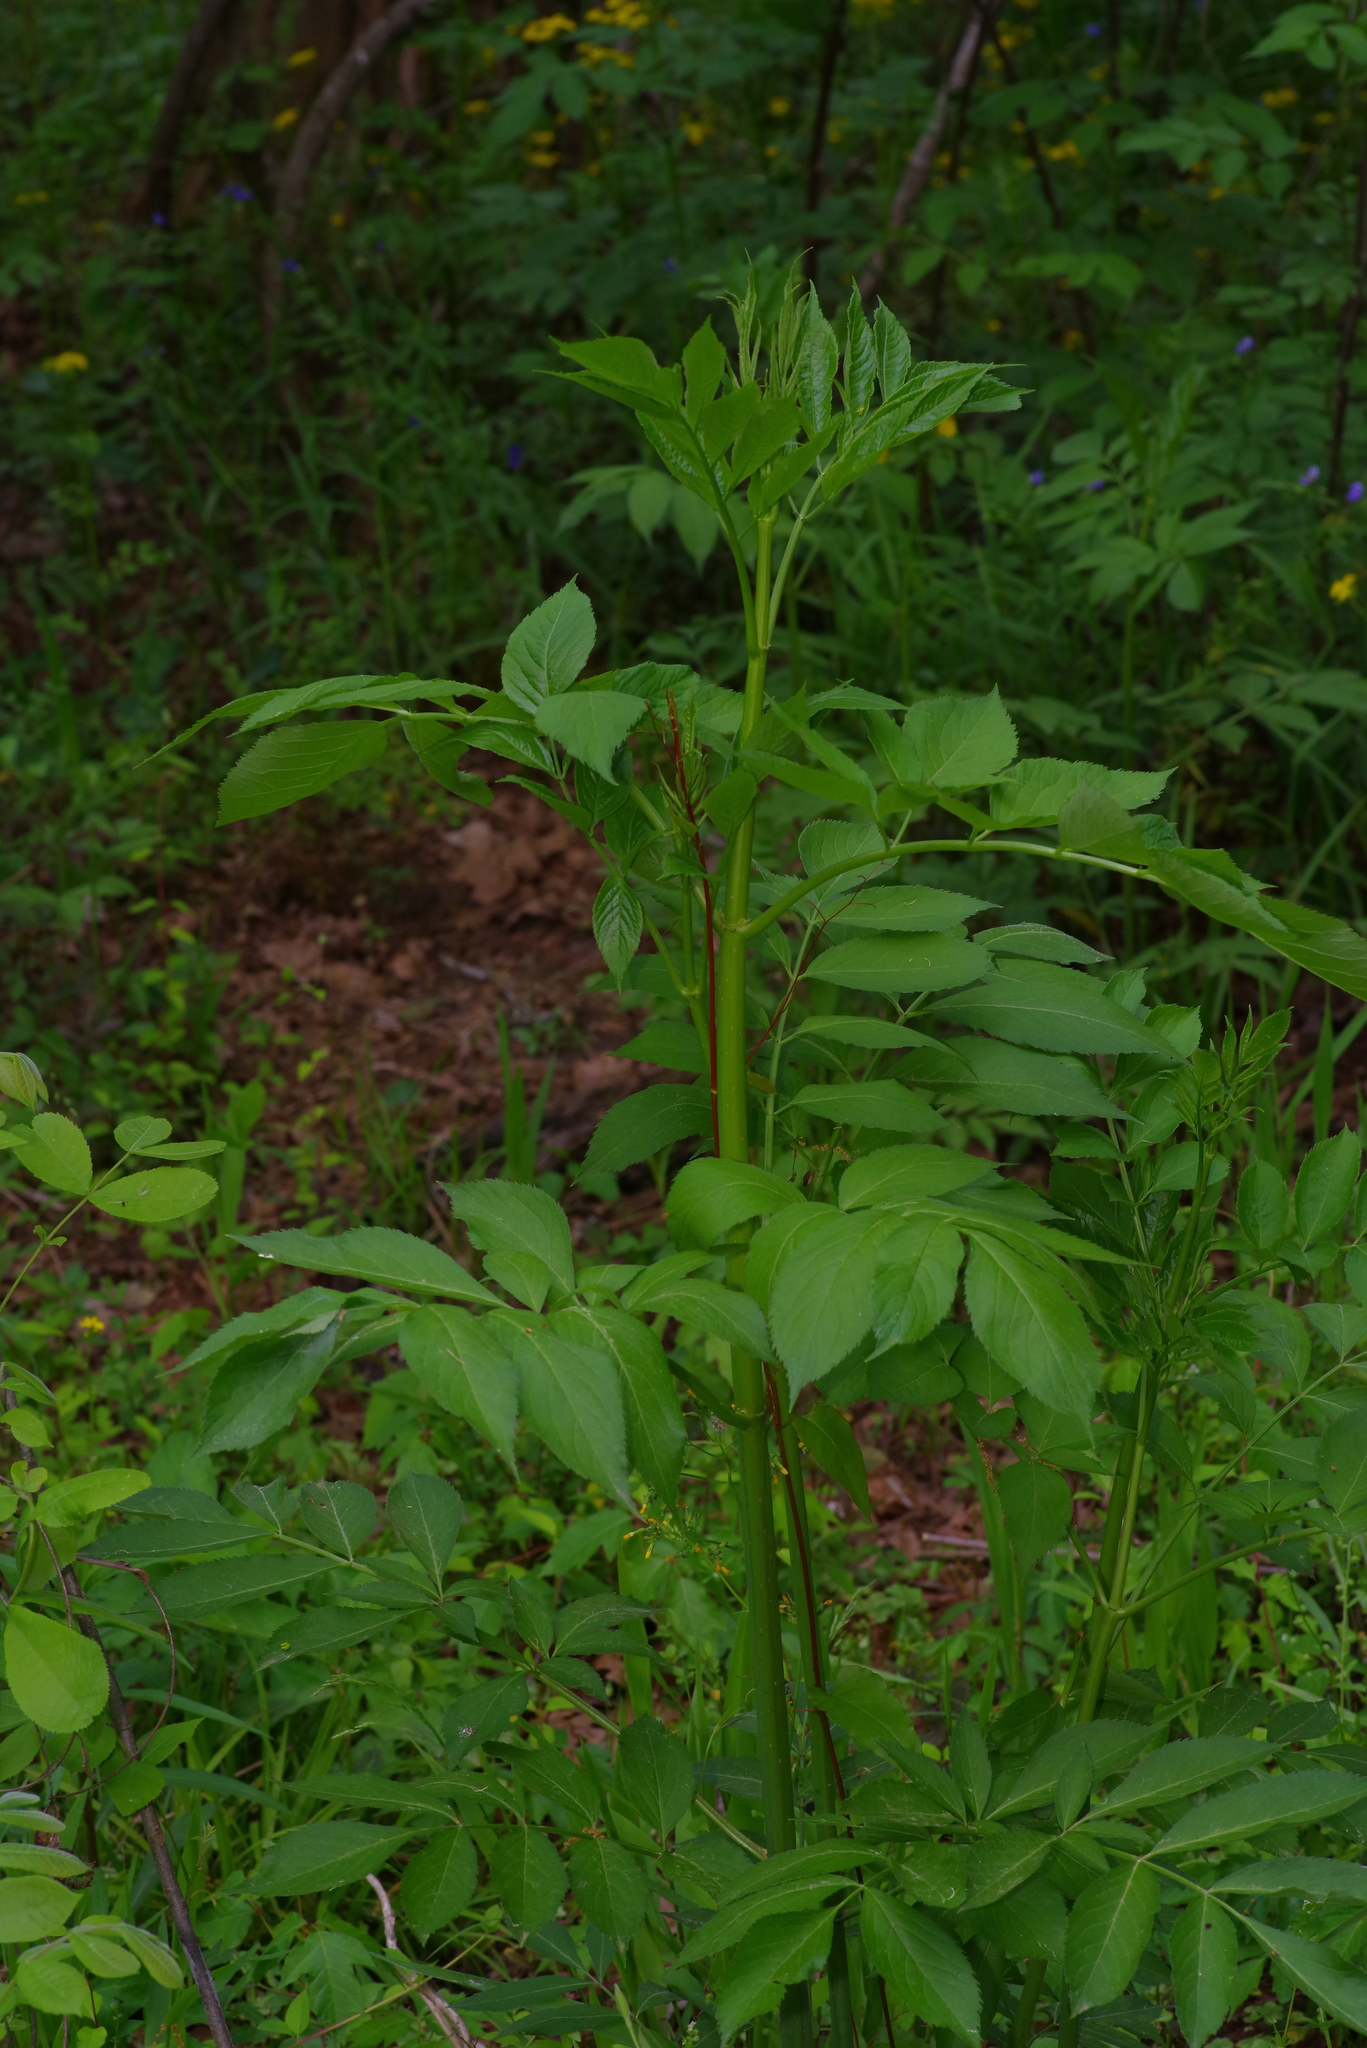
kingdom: Plantae
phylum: Tracheophyta
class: Magnoliopsida
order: Dipsacales
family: Viburnaceae
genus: Sambucus
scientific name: Sambucus canadensis
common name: American elder
